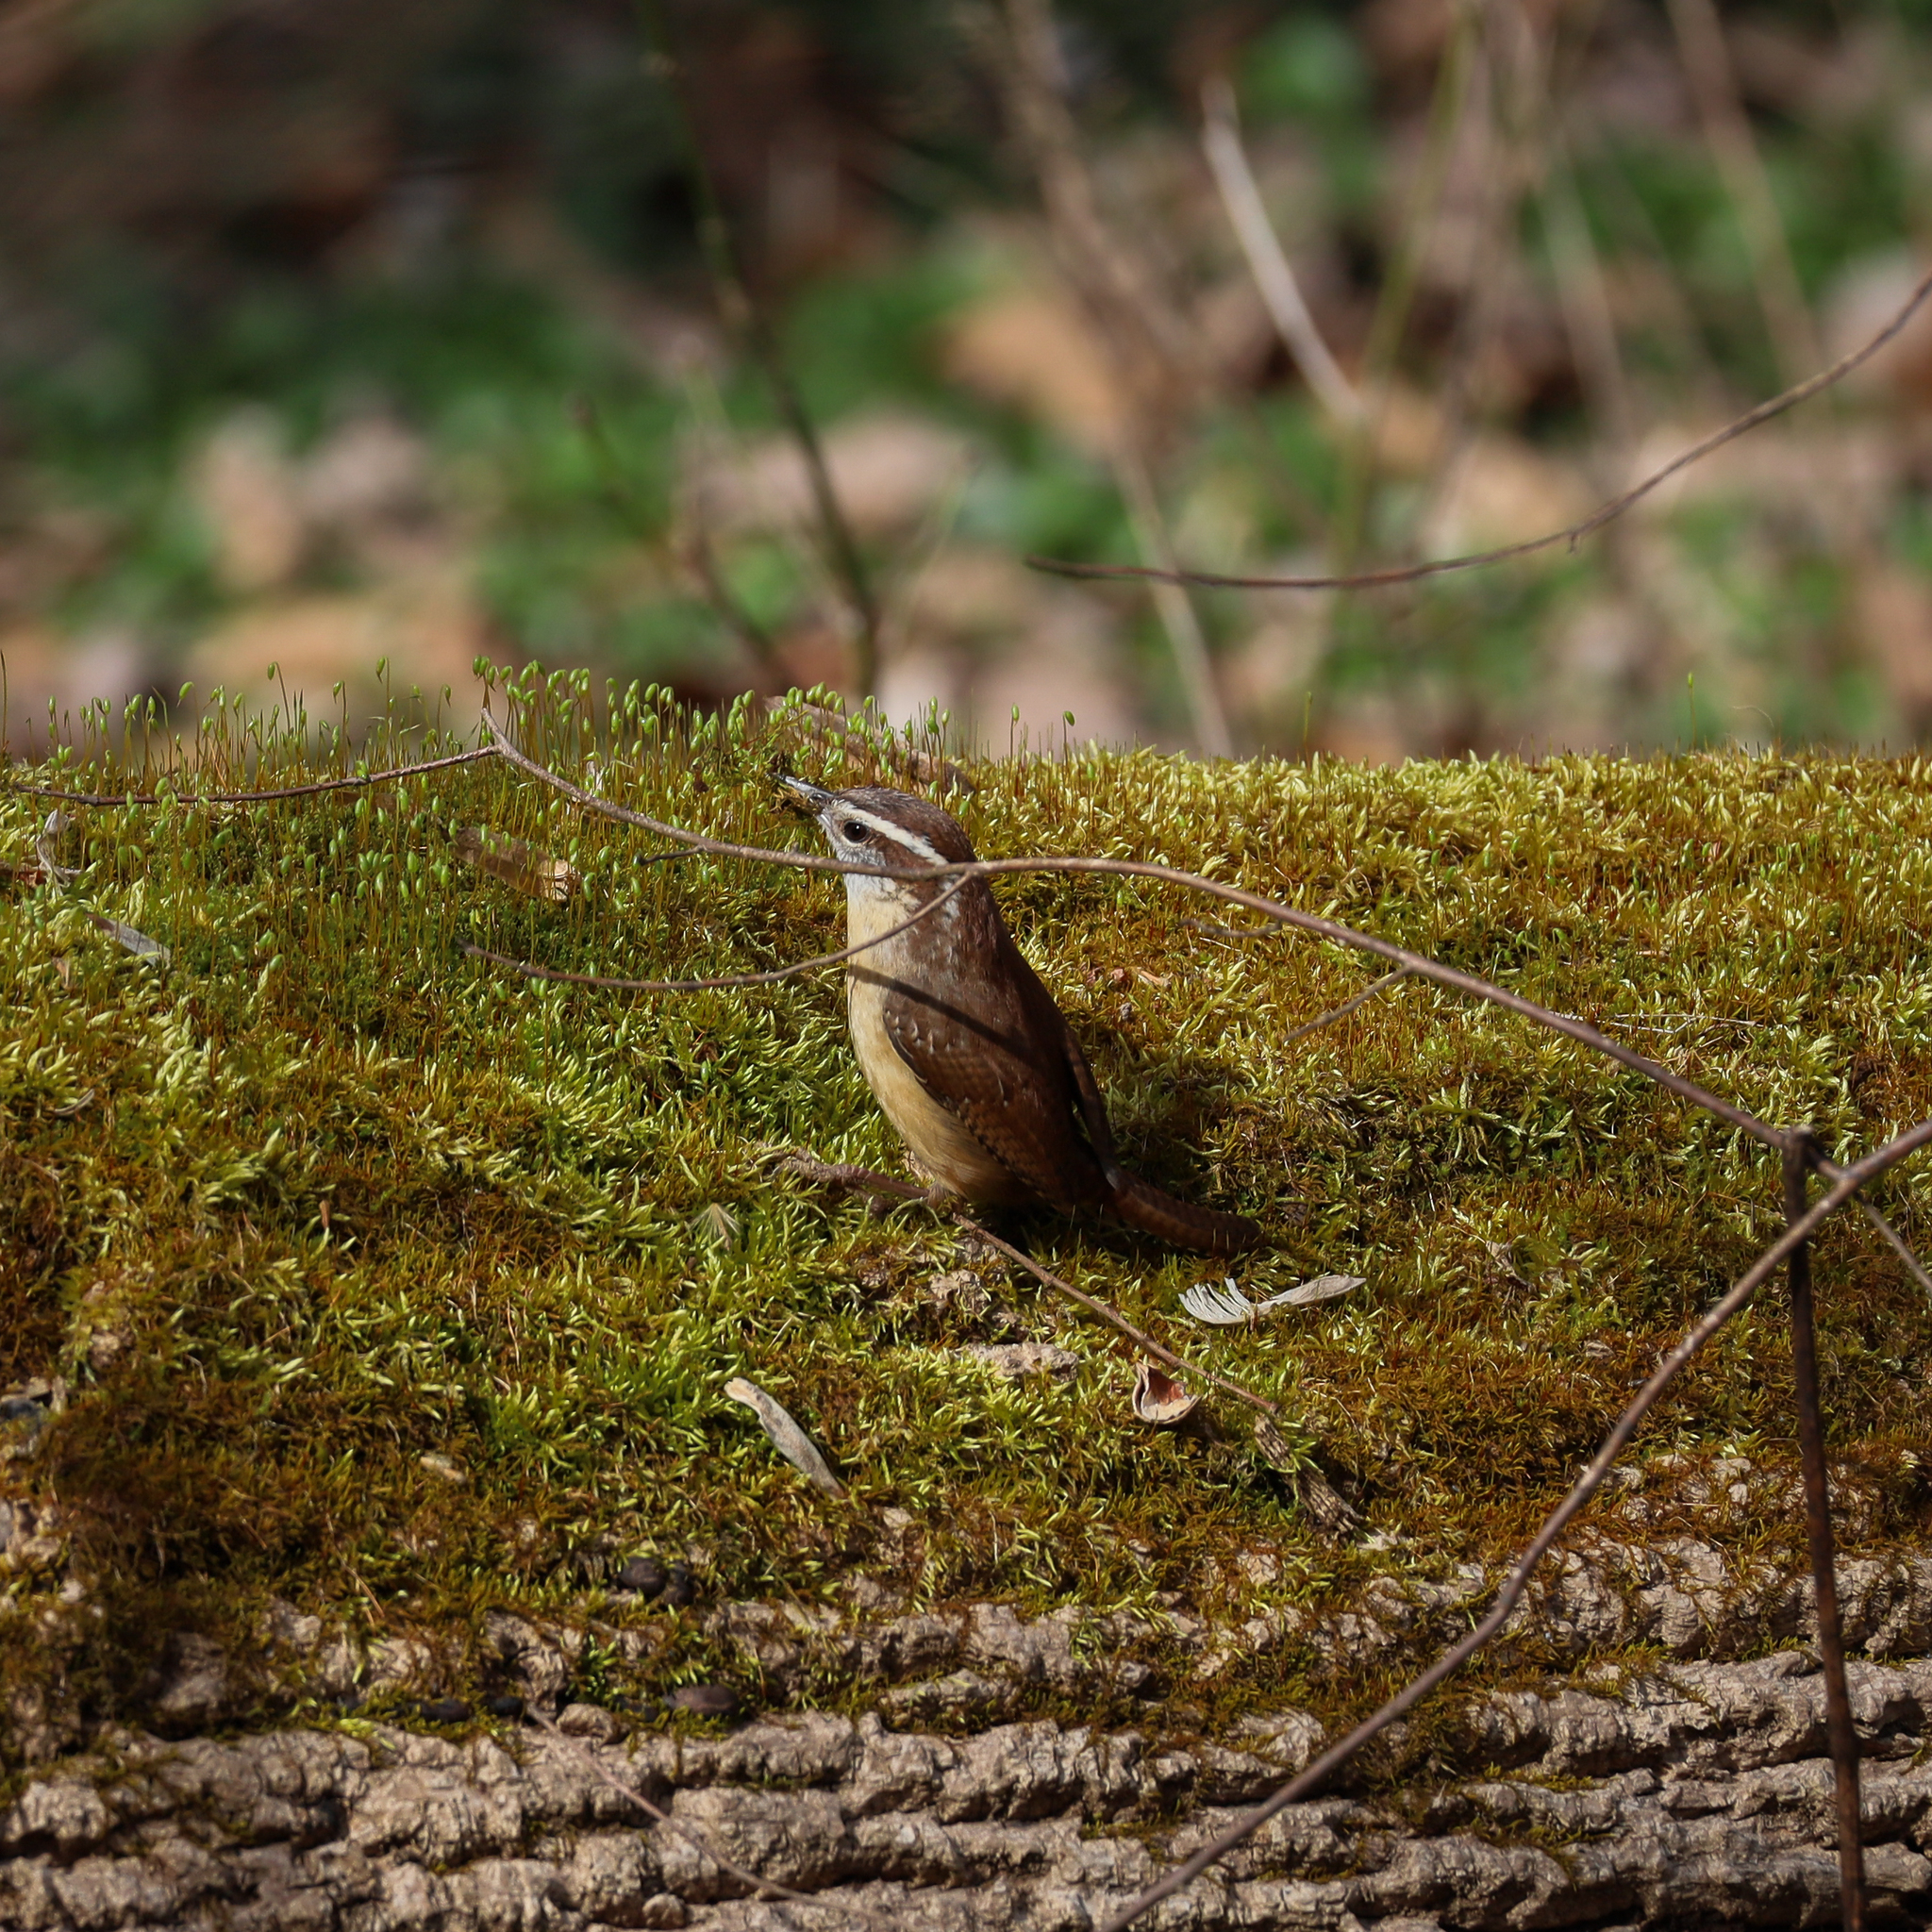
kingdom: Animalia
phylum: Chordata
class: Aves
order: Passeriformes
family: Troglodytidae
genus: Thryothorus
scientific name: Thryothorus ludovicianus
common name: Carolina wren
